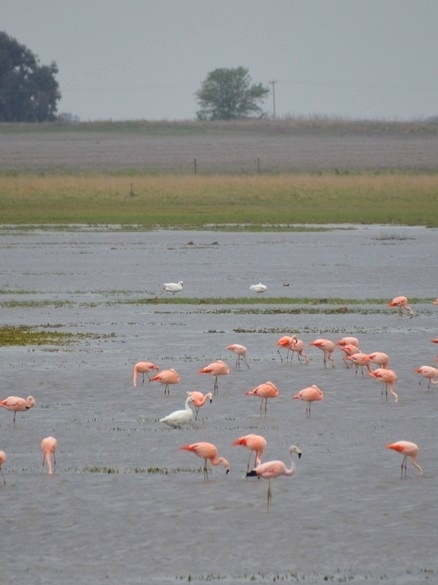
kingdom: Animalia
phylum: Chordata
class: Aves
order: Anseriformes
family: Anatidae
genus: Coscoroba
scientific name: Coscoroba coscoroba
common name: Coscoroba swan
